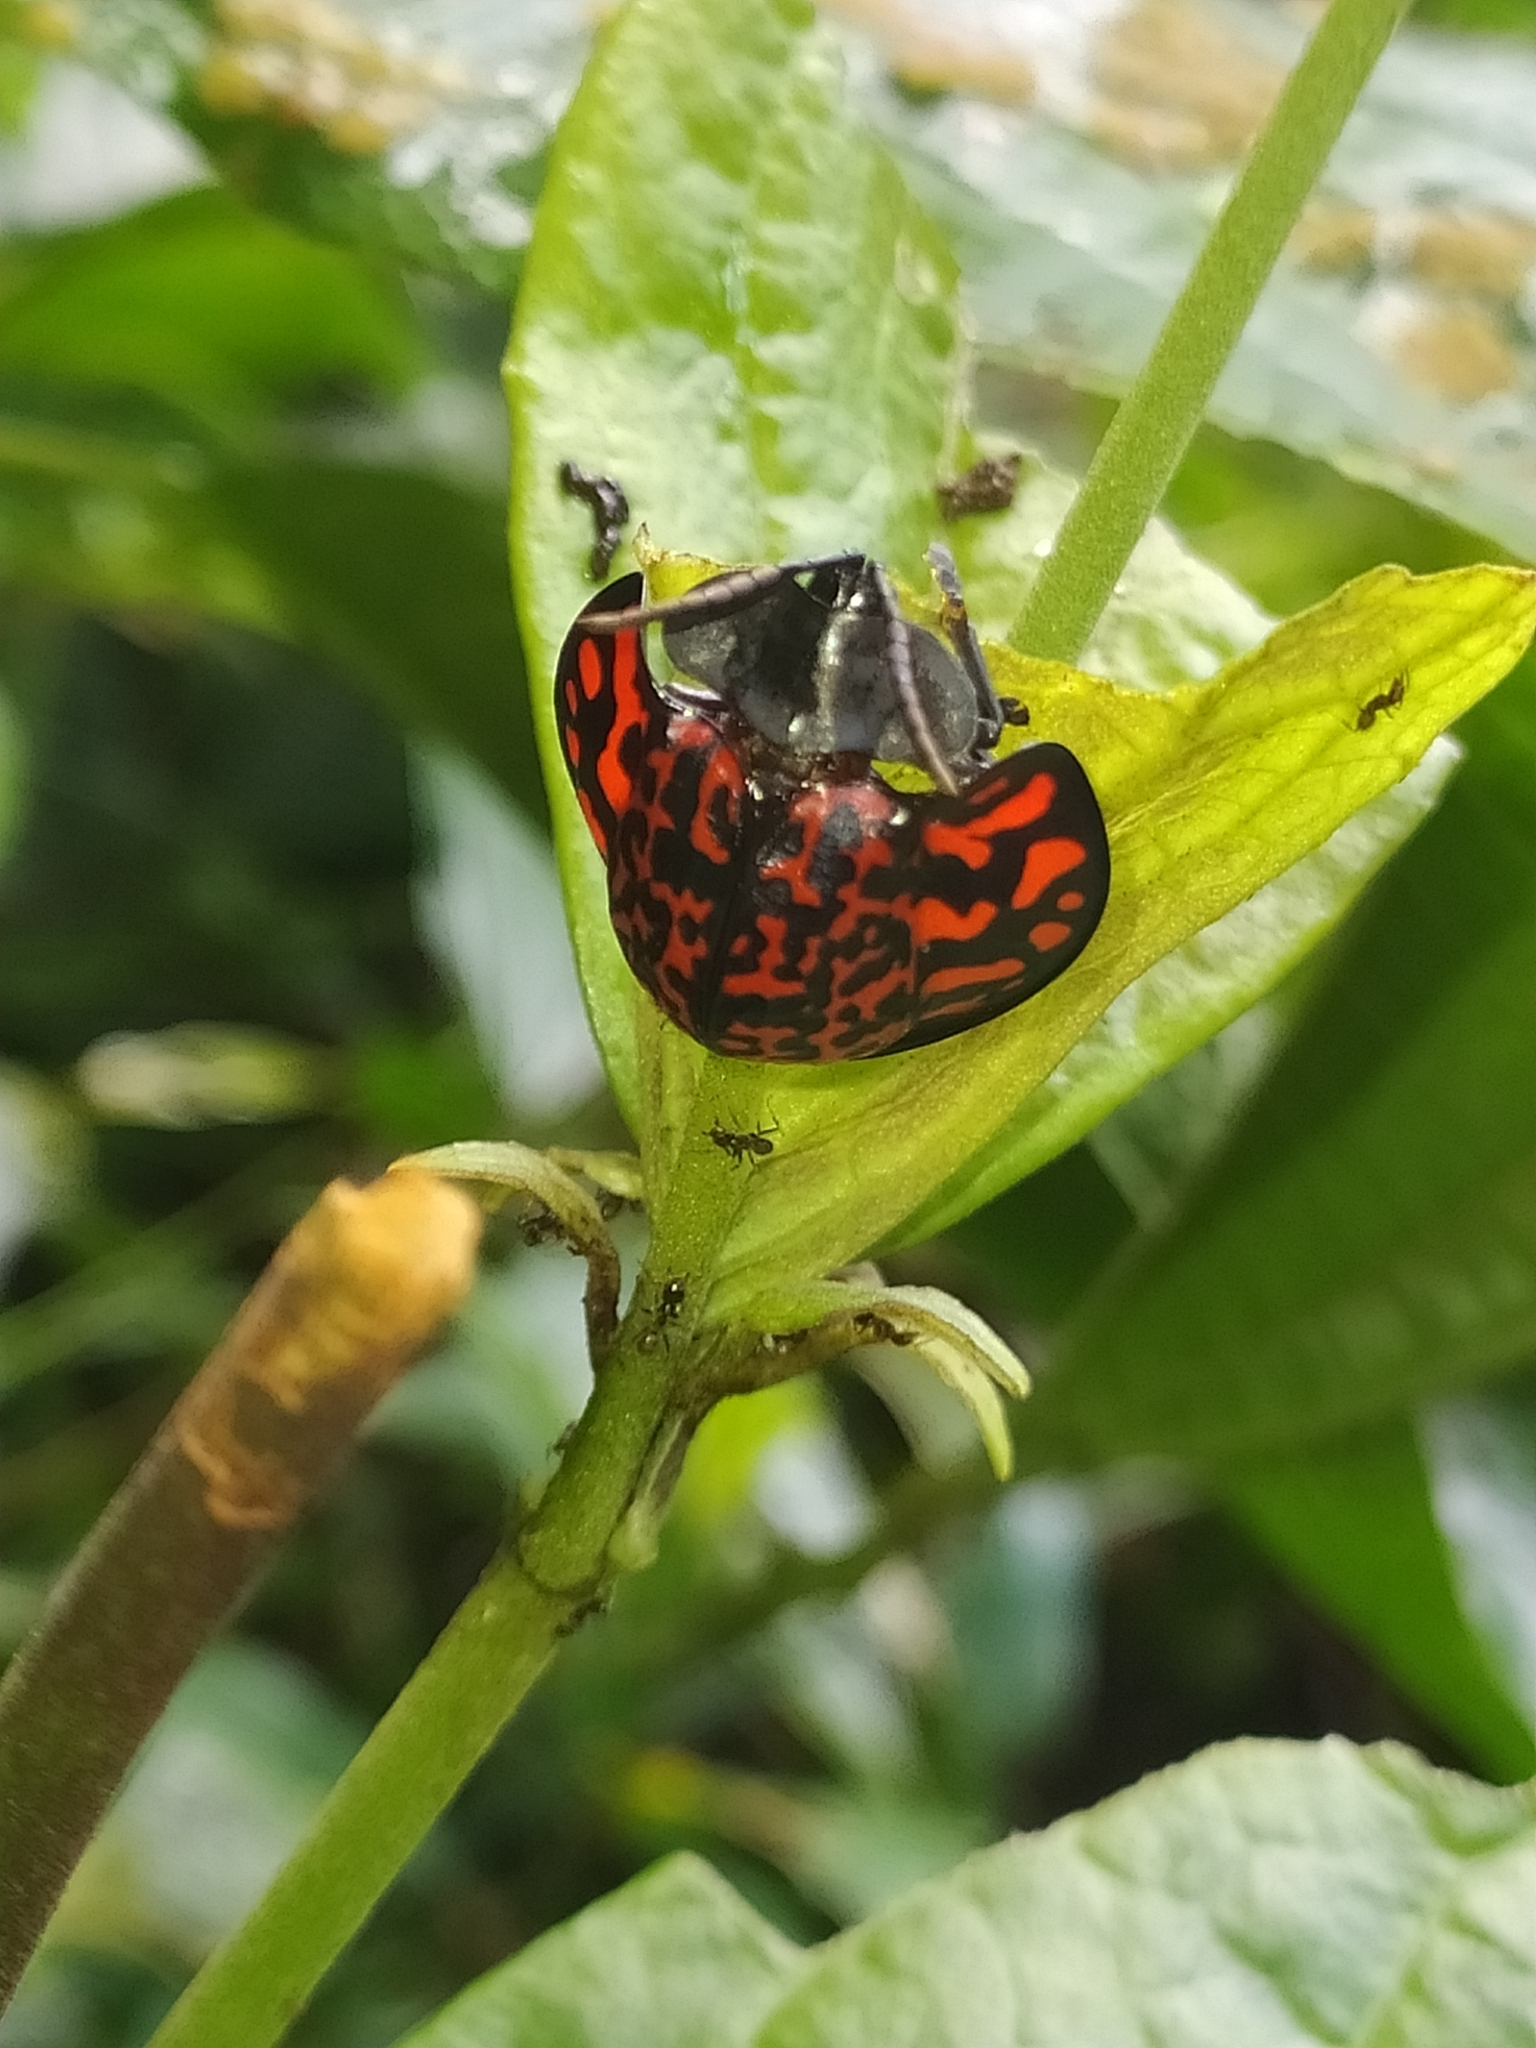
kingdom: Animalia
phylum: Arthropoda
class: Insecta
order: Coleoptera
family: Chrysomelidae
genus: Eugenysa
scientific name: Eugenysa venosa
